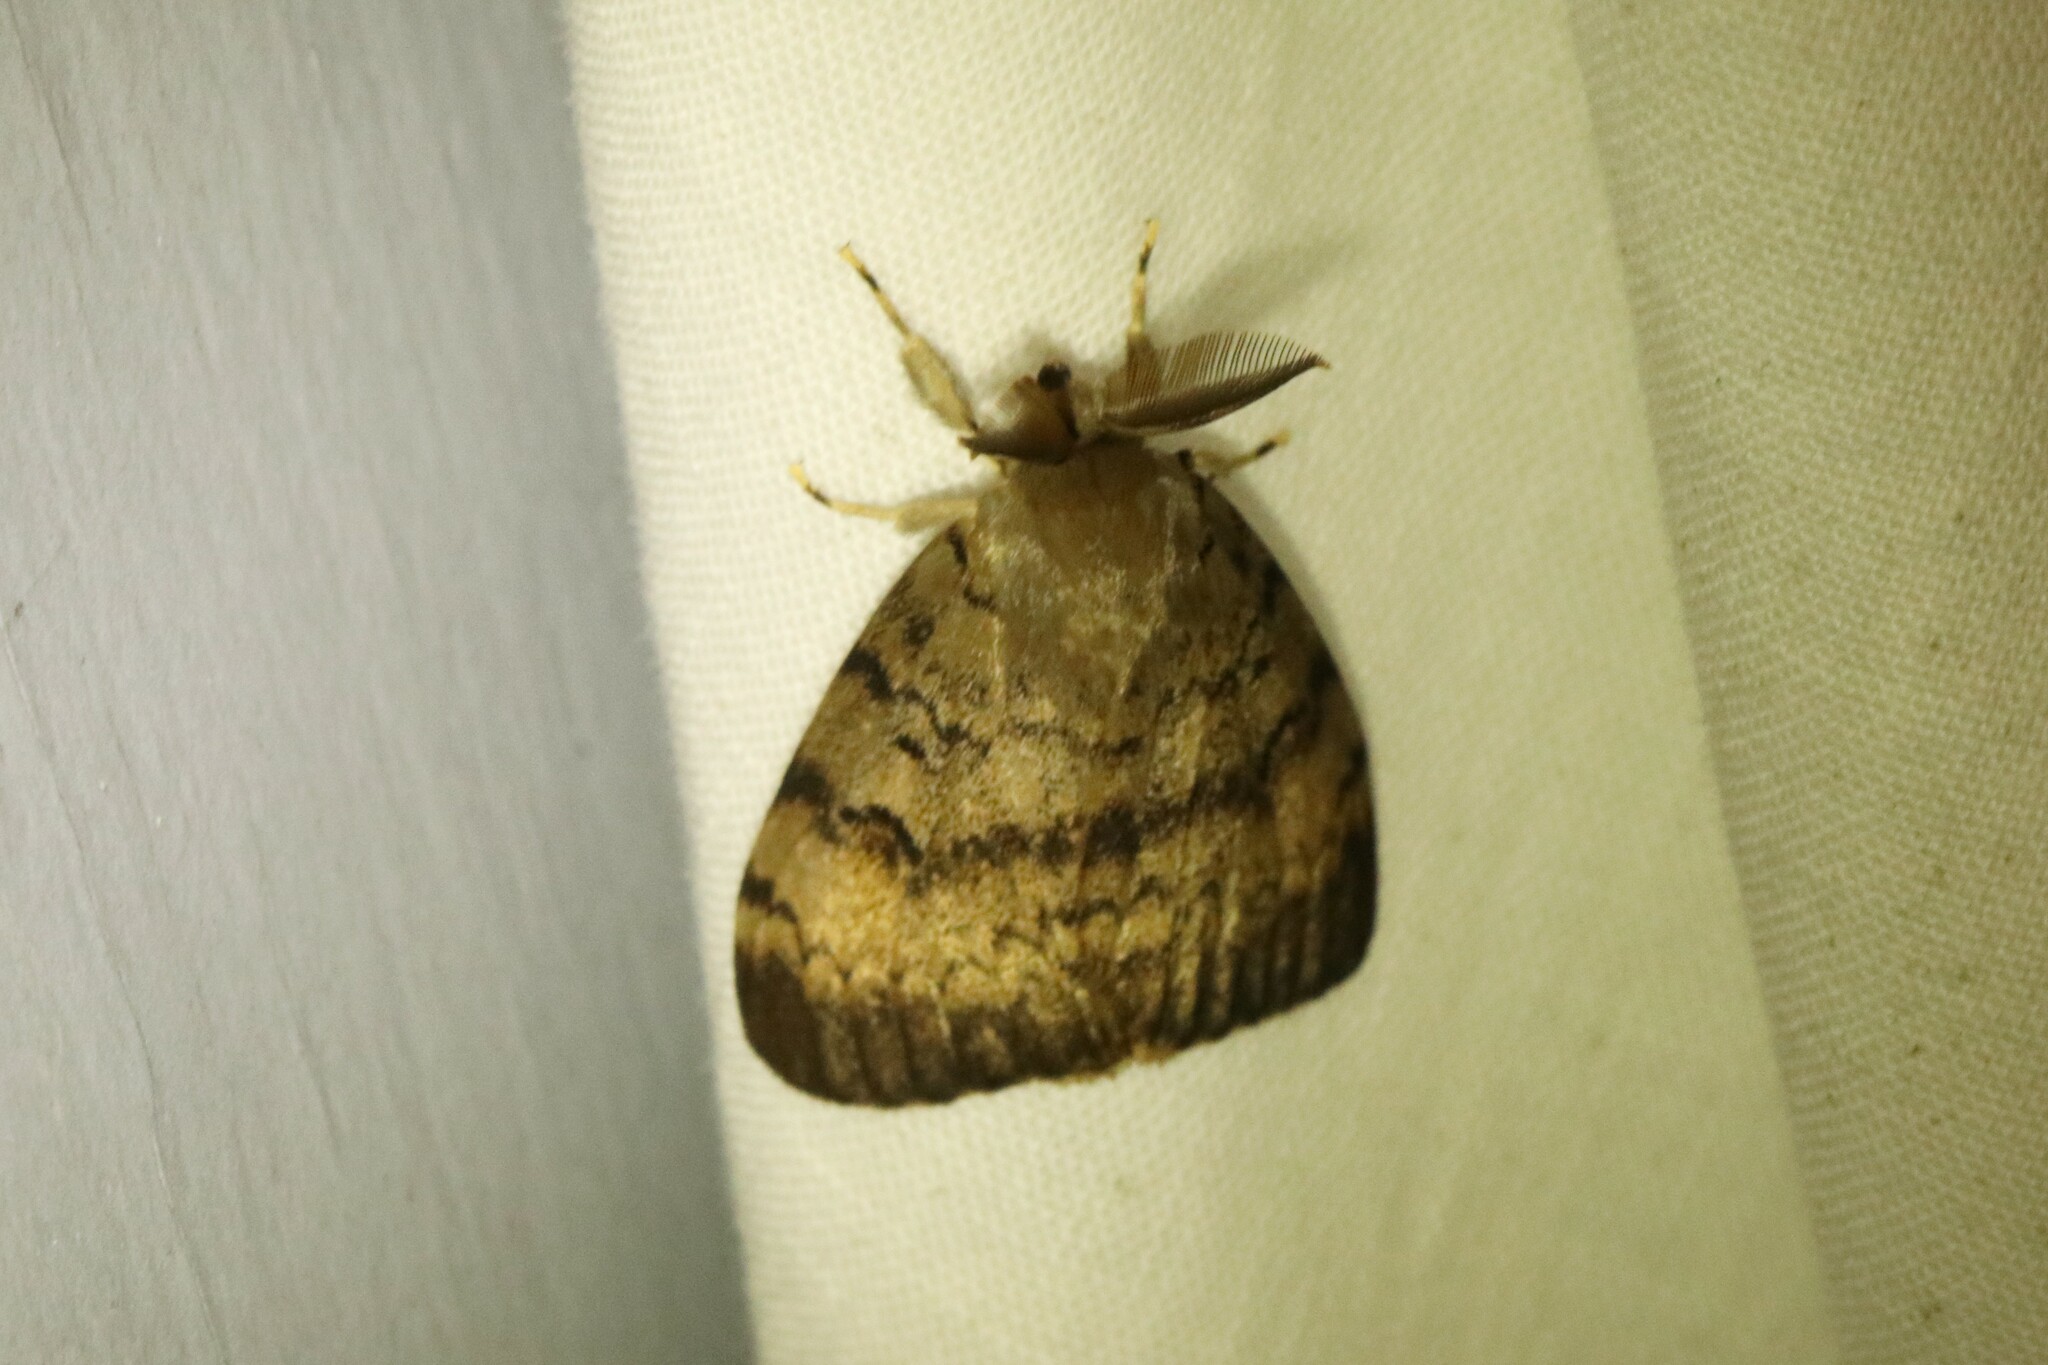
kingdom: Animalia
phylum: Arthropoda
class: Insecta
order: Lepidoptera
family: Erebidae
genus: Lymantria
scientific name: Lymantria dispar
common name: Gypsy moth
